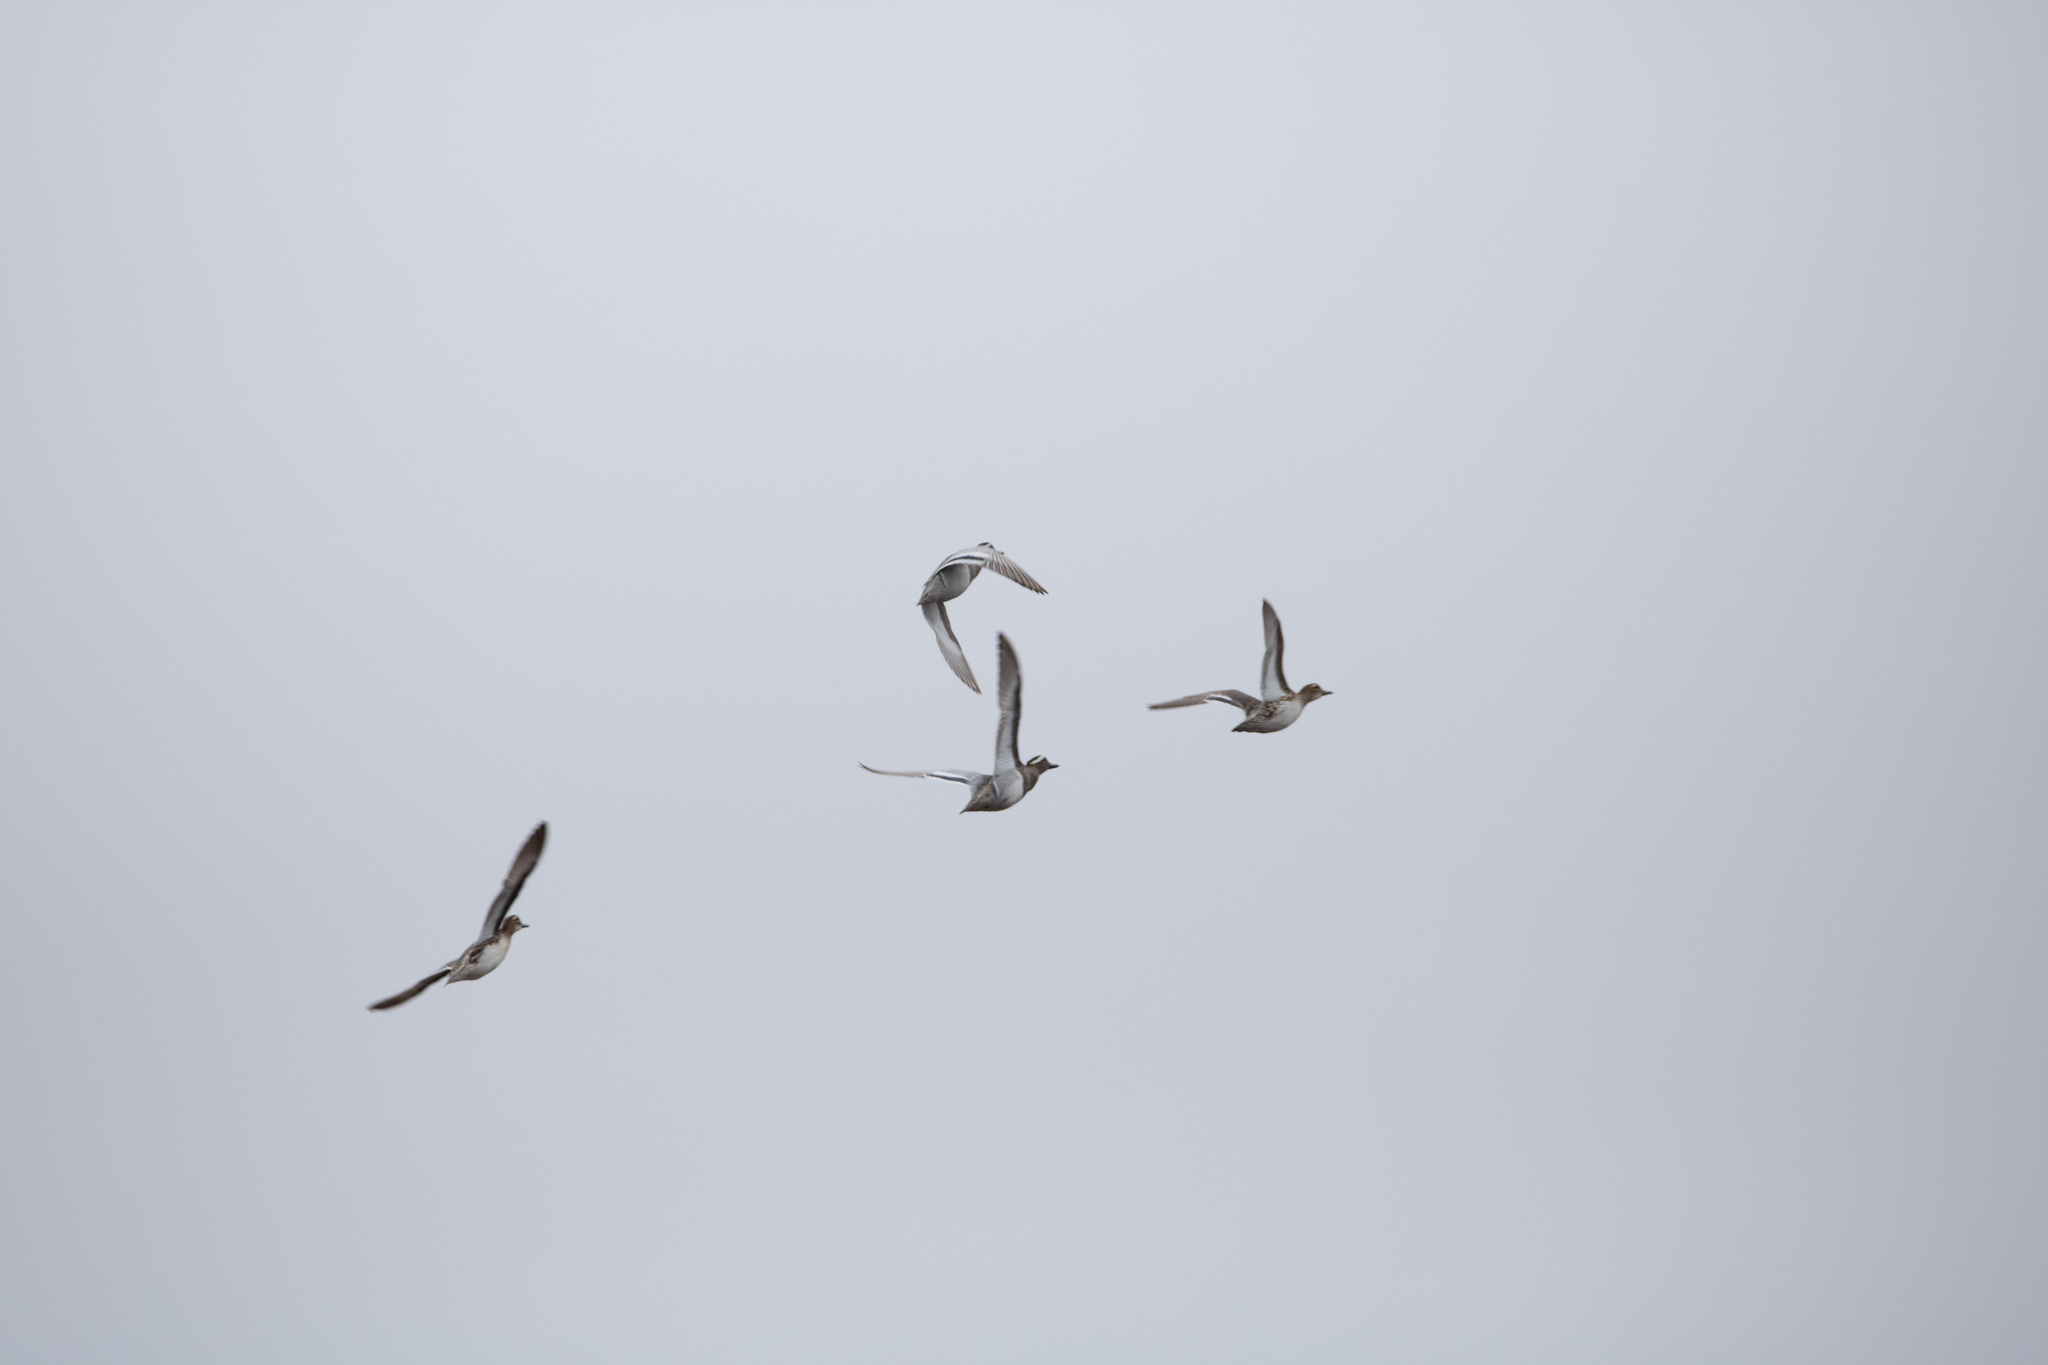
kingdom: Animalia
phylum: Chordata
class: Aves
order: Anseriformes
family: Anatidae
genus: Spatula
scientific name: Spatula querquedula
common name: Garganey
